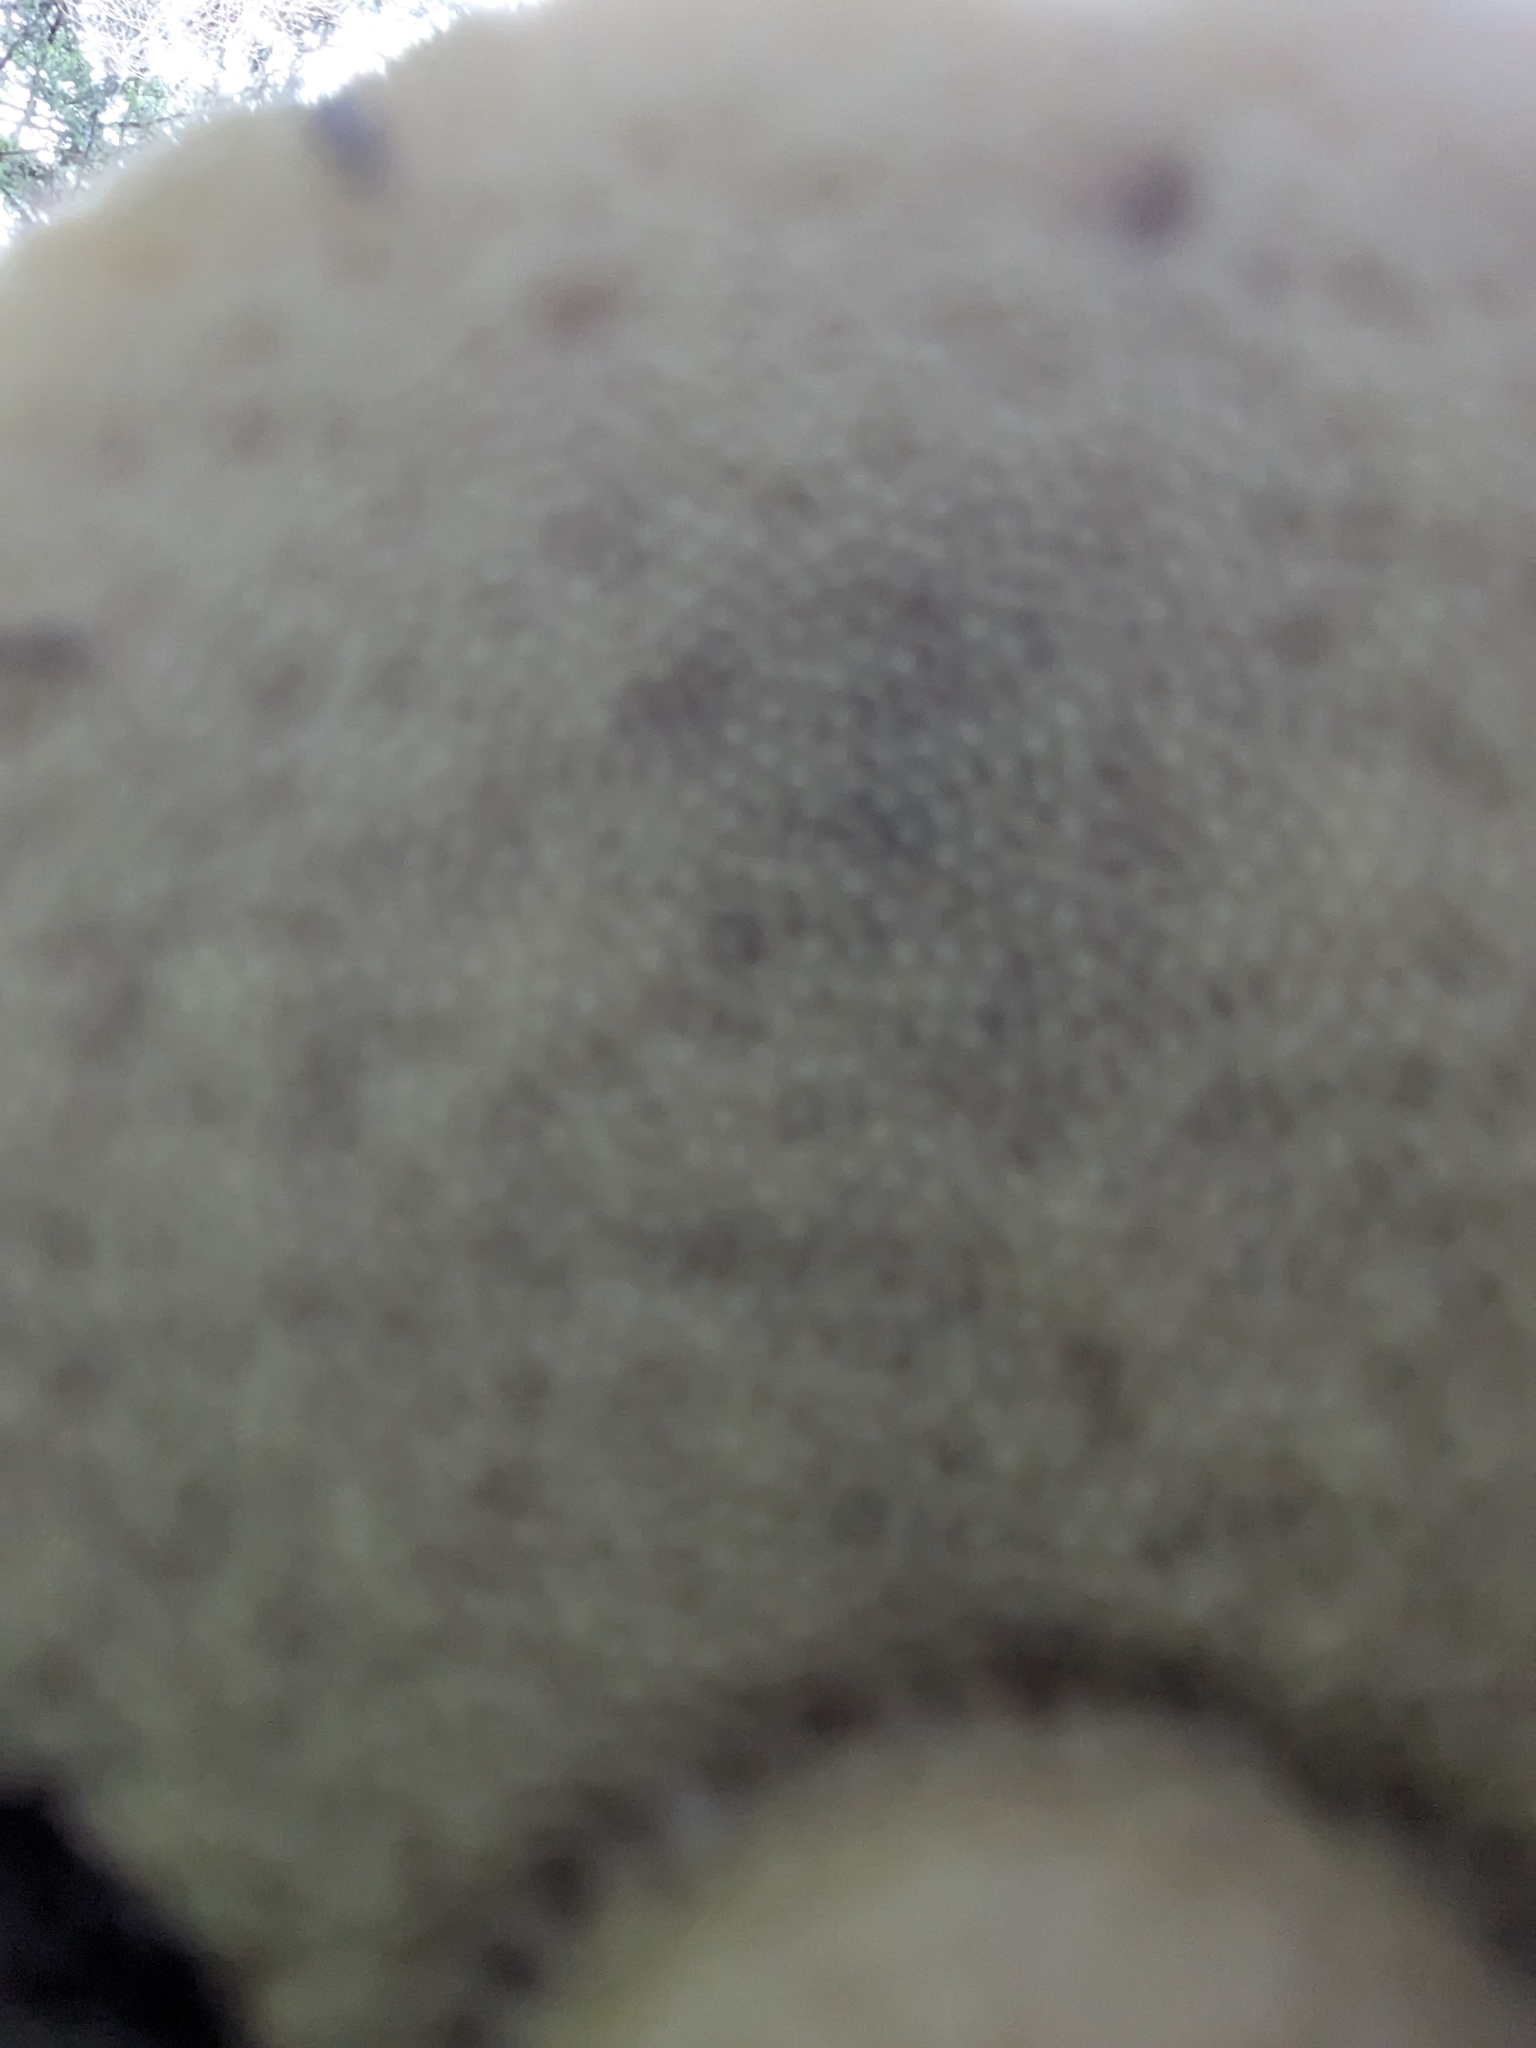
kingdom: Fungi
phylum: Basidiomycota
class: Agaricomycetes
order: Boletales
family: Boletaceae
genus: Imleria
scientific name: Imleria badia
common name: Bay bolete
